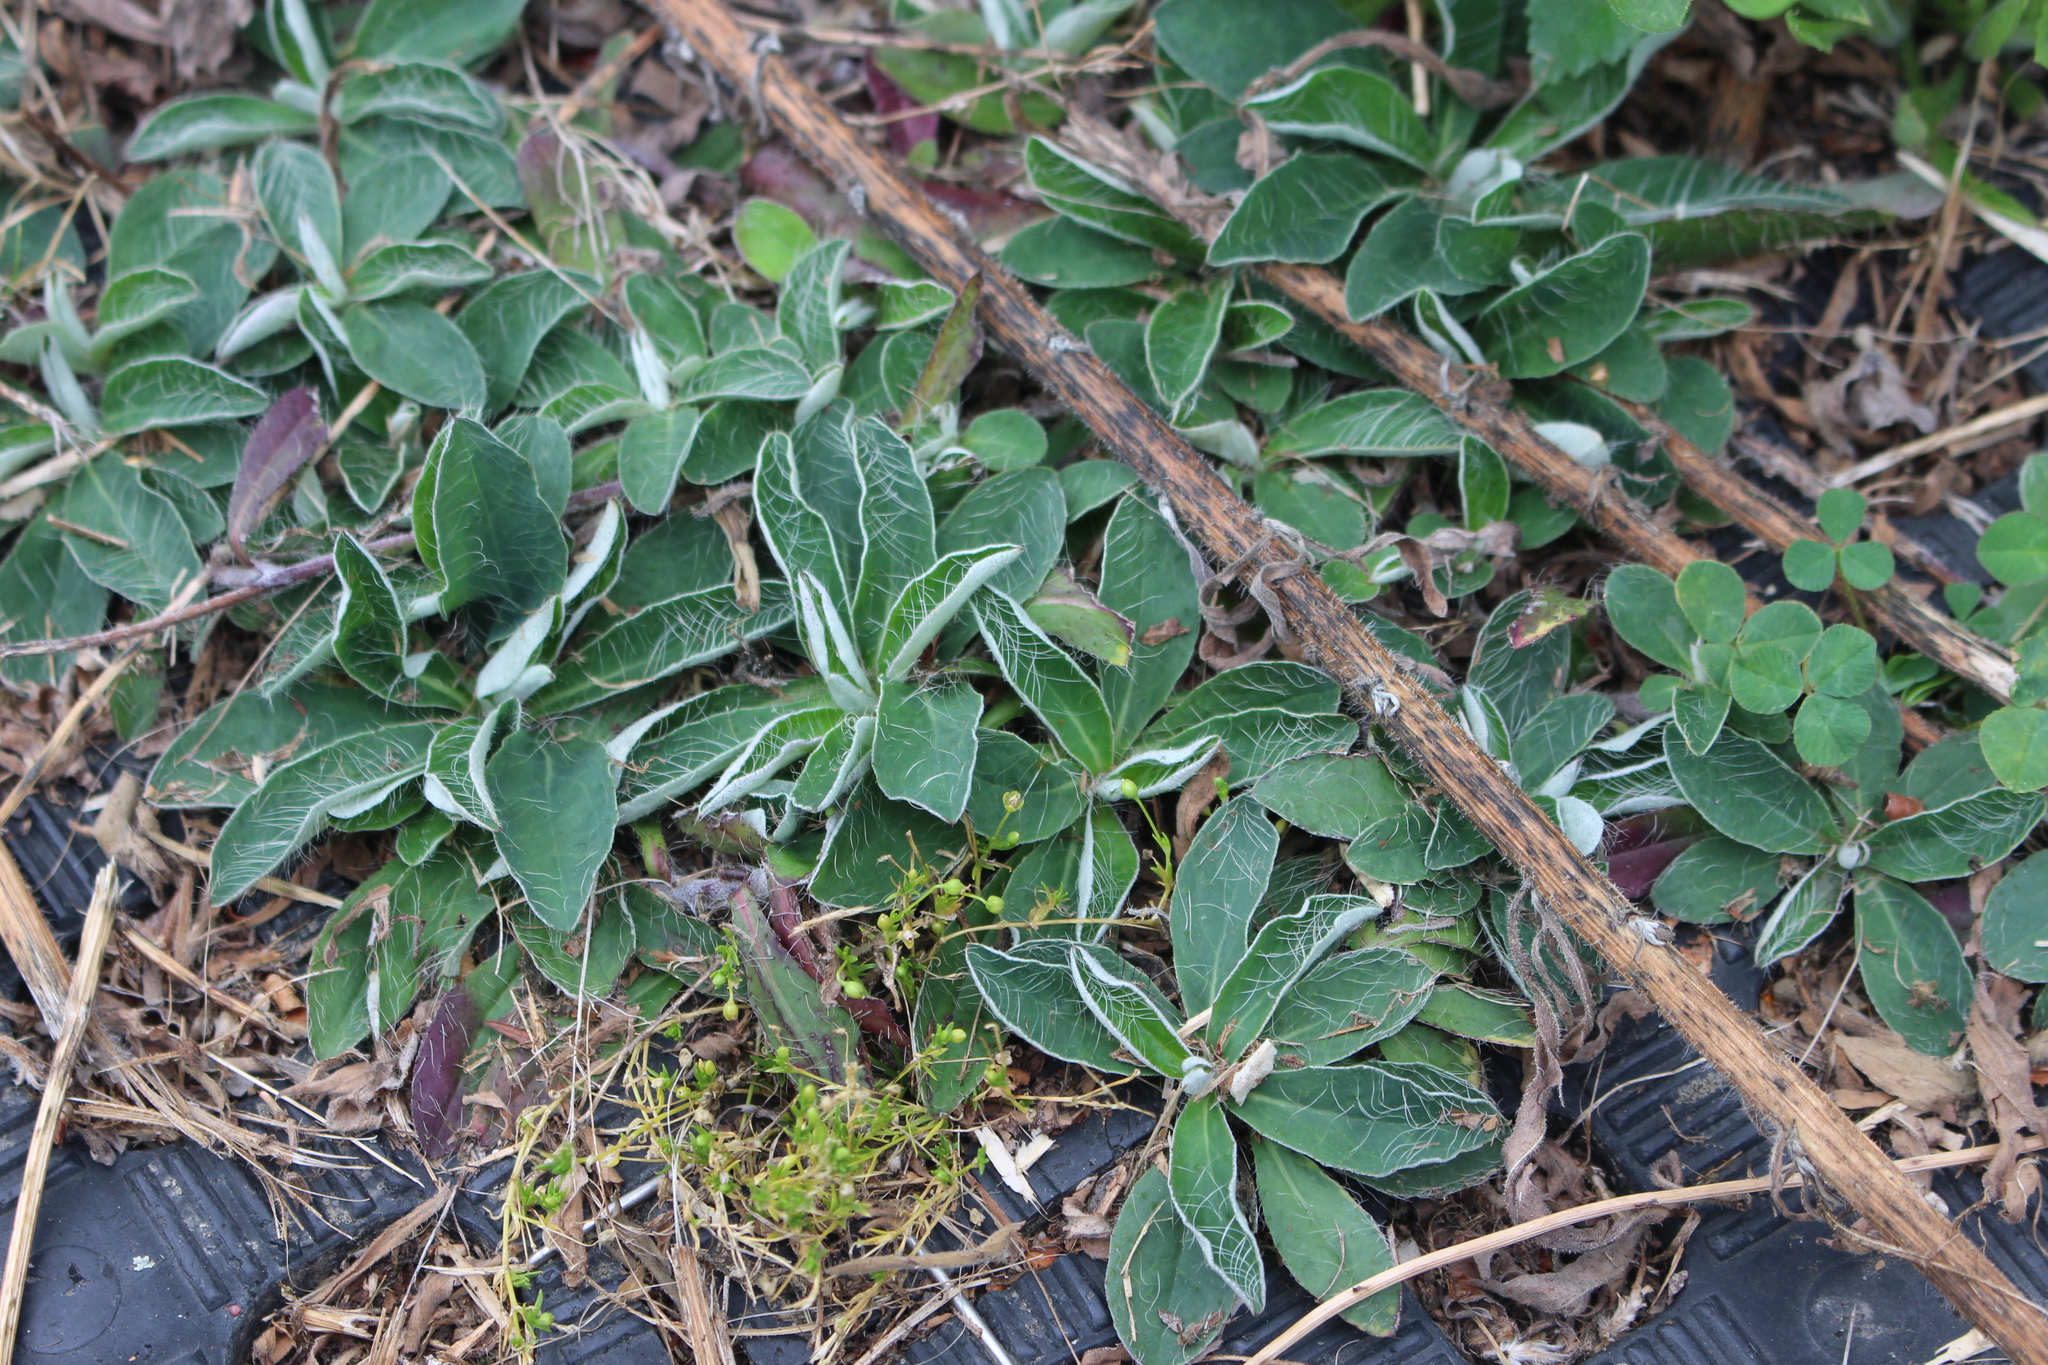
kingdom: Plantae
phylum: Tracheophyta
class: Magnoliopsida
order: Asterales
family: Asteraceae
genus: Pilosella
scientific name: Pilosella officinarum
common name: Mouse-ear hawkweed
